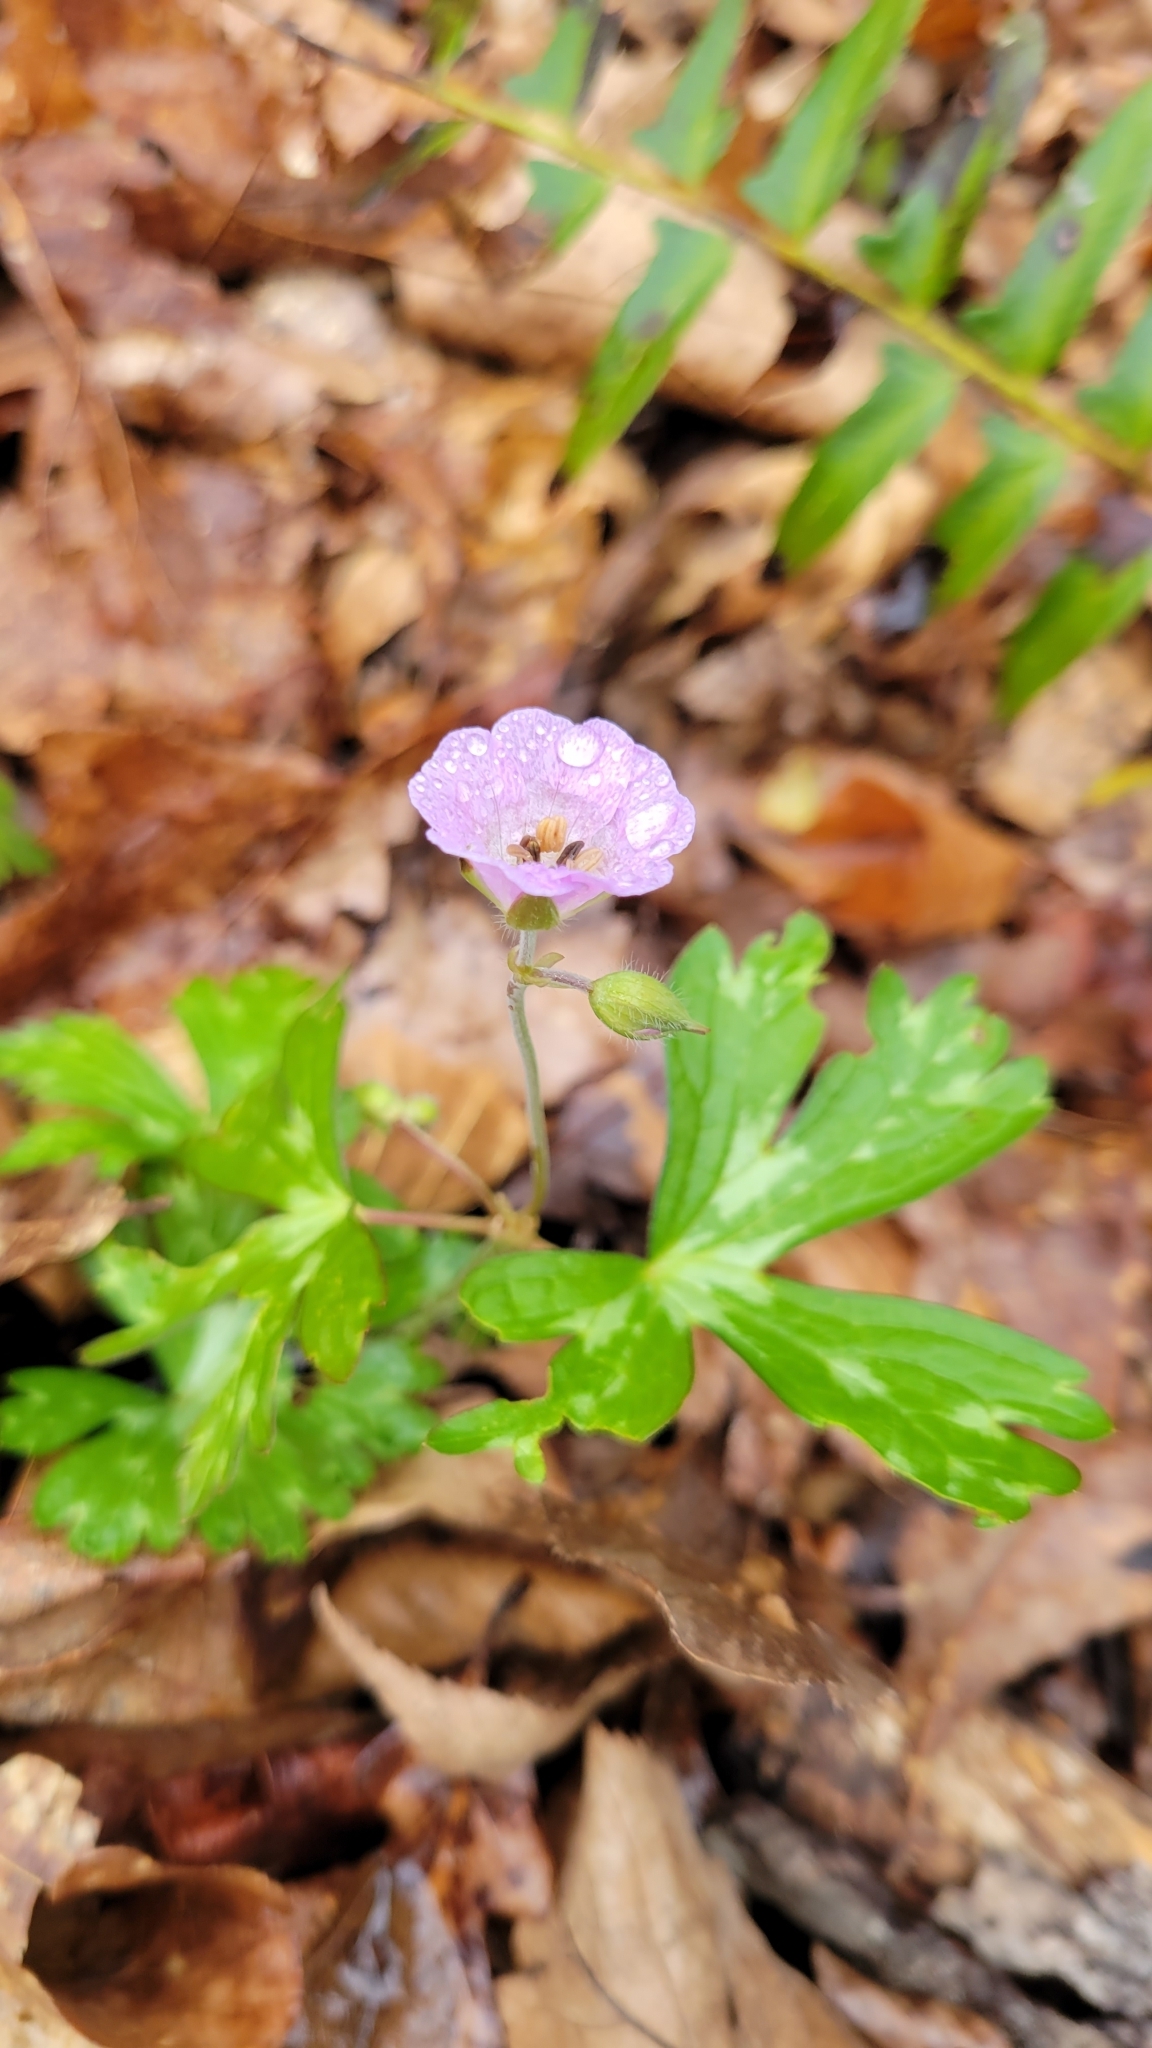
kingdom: Plantae
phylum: Tracheophyta
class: Magnoliopsida
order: Geraniales
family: Geraniaceae
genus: Geranium
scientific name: Geranium maculatum
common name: Spotted geranium
